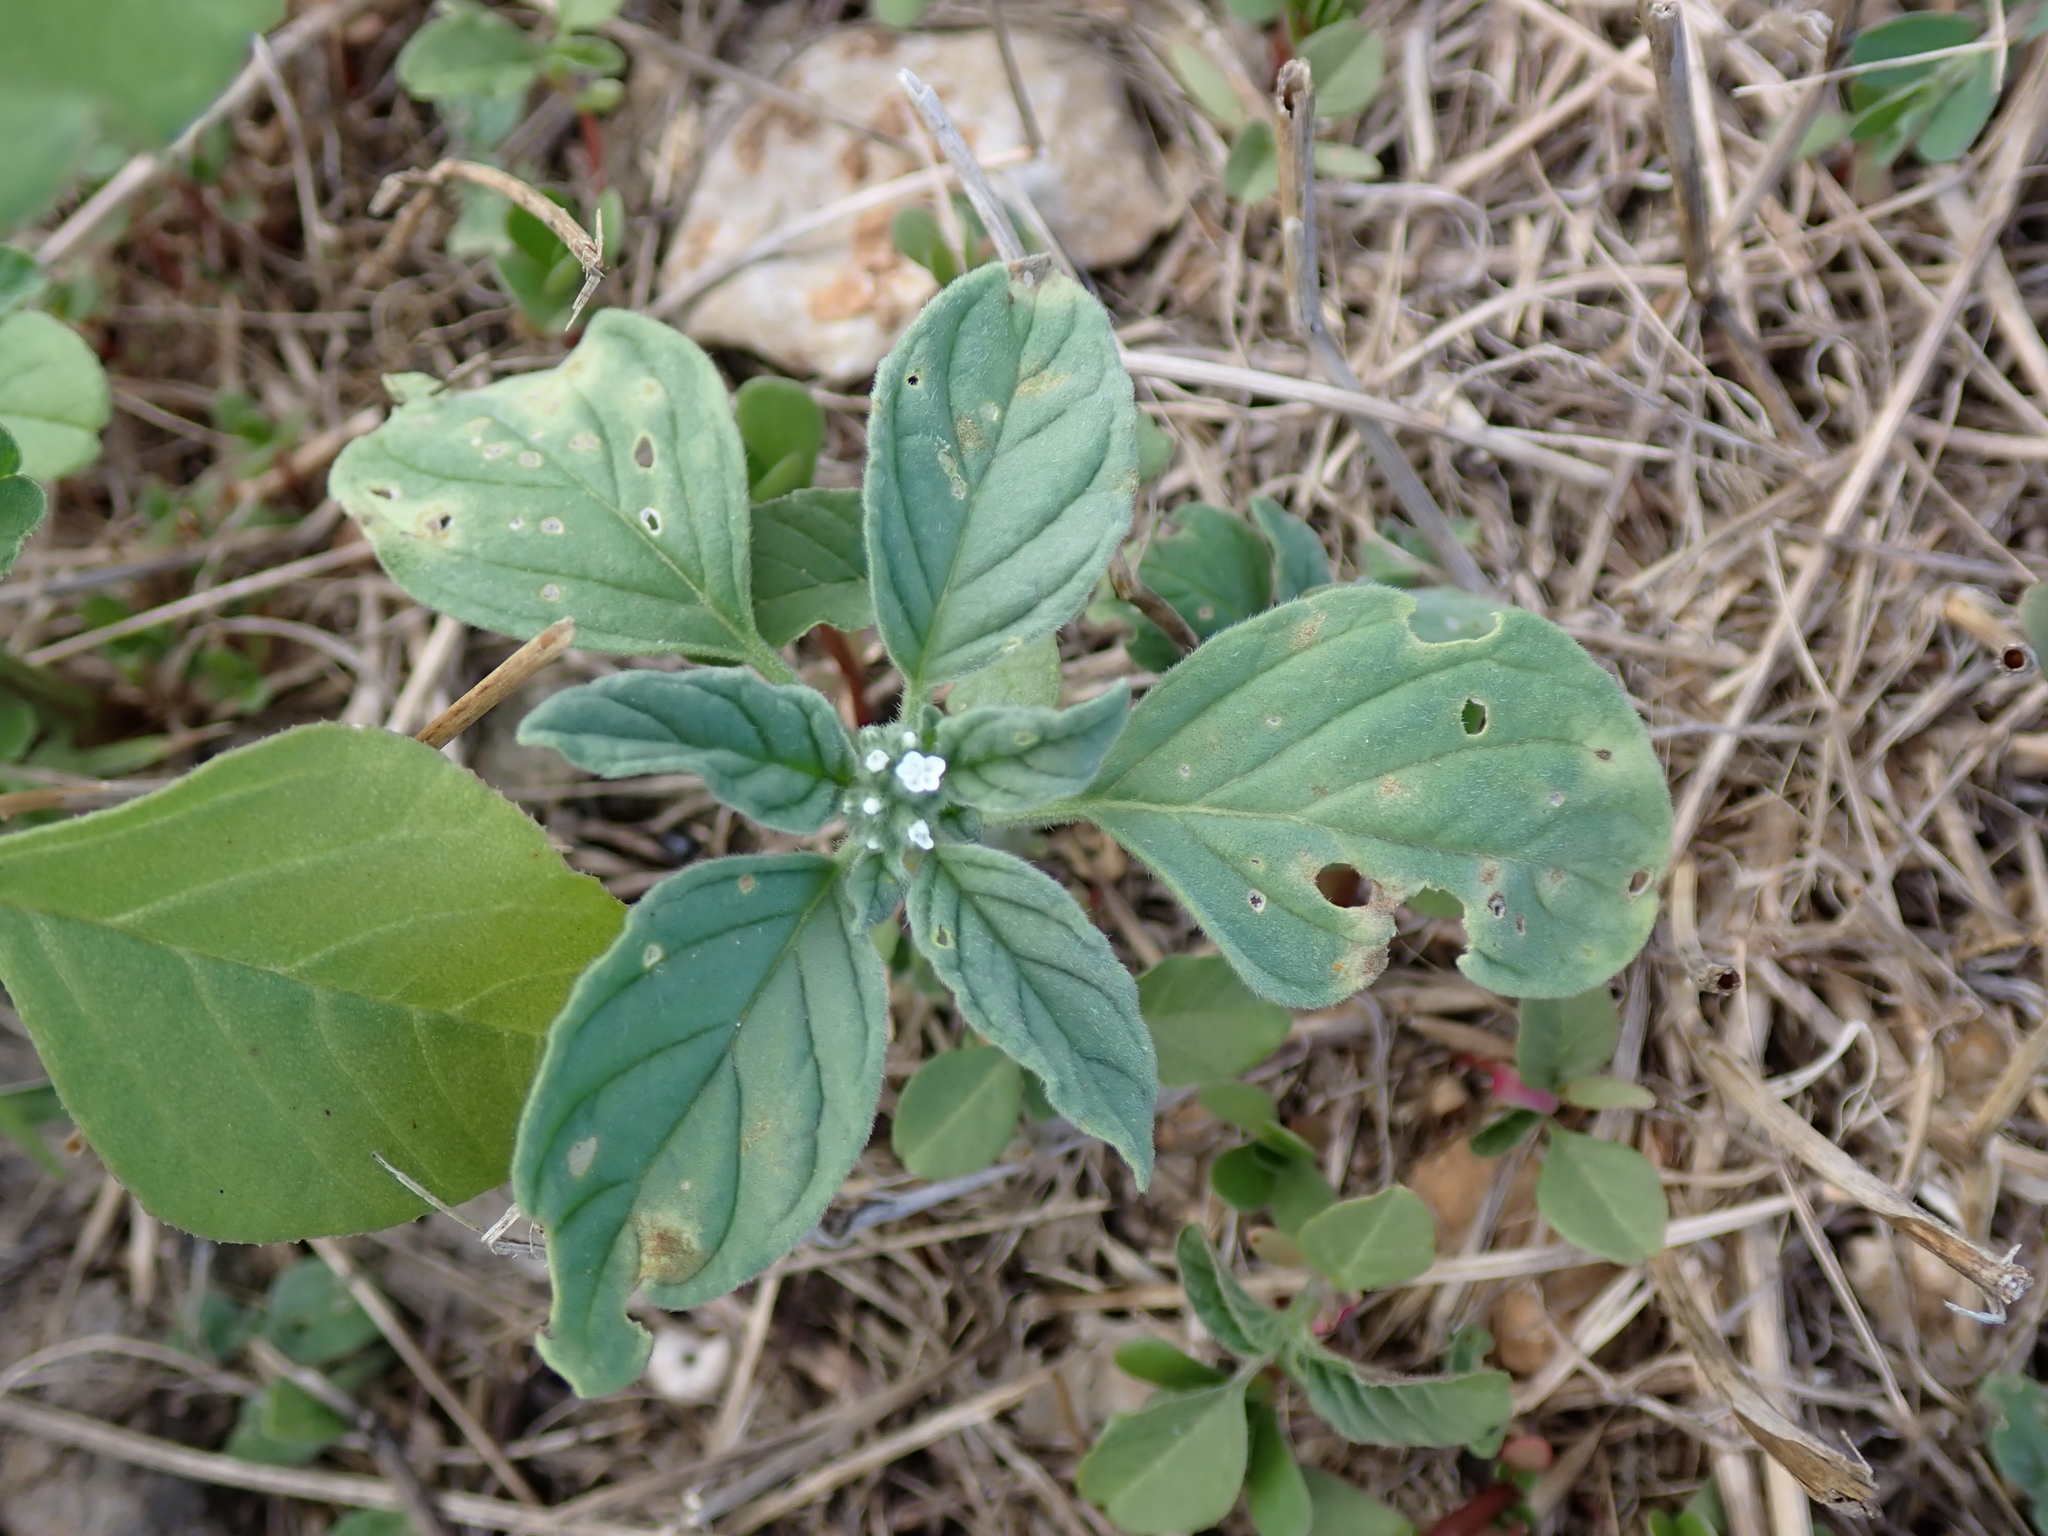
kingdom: Plantae
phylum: Tracheophyta
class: Magnoliopsida
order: Boraginales
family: Heliotropiaceae
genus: Heliotropium
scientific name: Heliotropium europaeum
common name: European heliotrope
